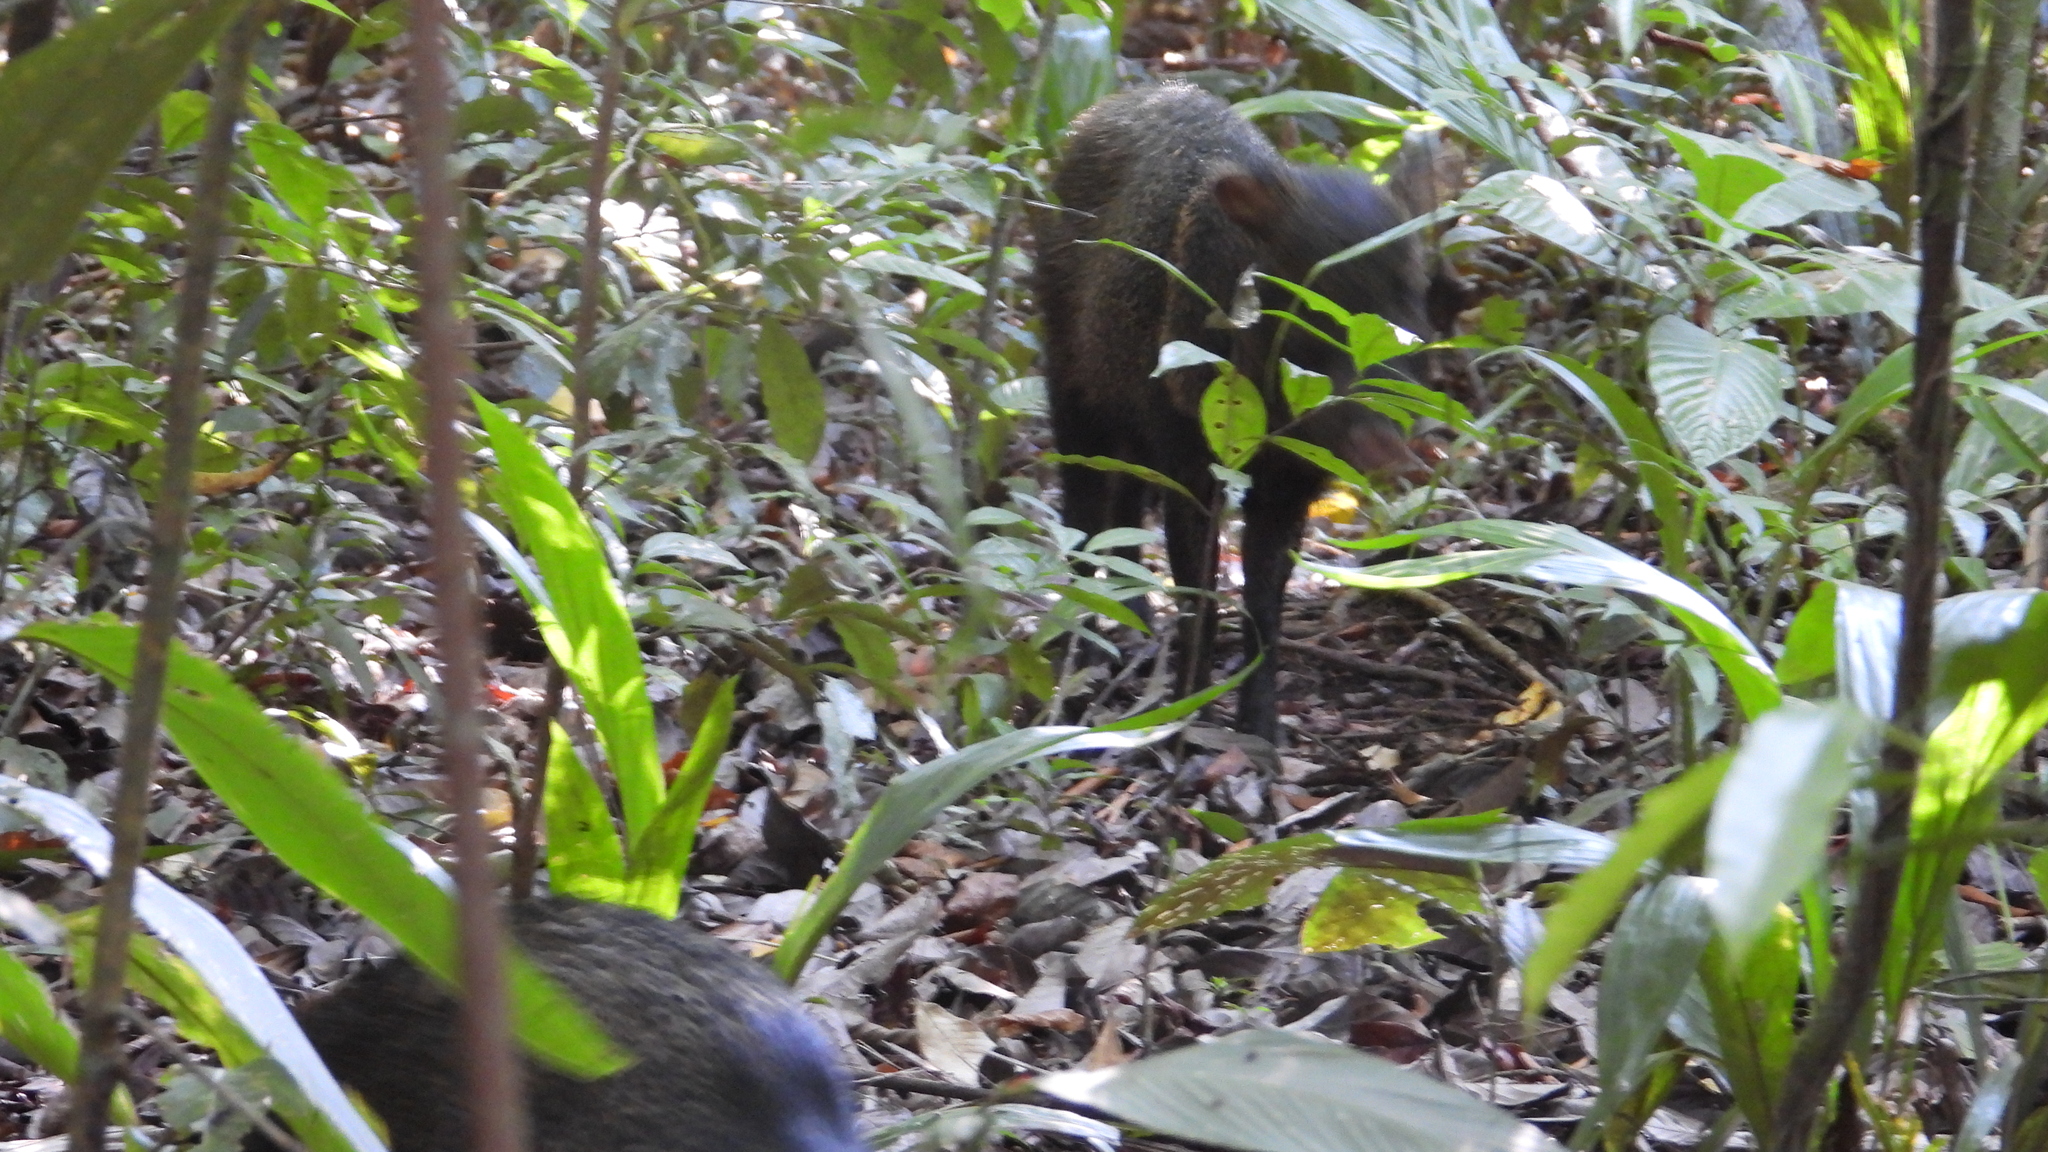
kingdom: Animalia
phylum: Chordata
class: Mammalia
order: Artiodactyla
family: Tayassuidae
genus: Pecari
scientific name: Pecari tajacu
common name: Collared peccary
